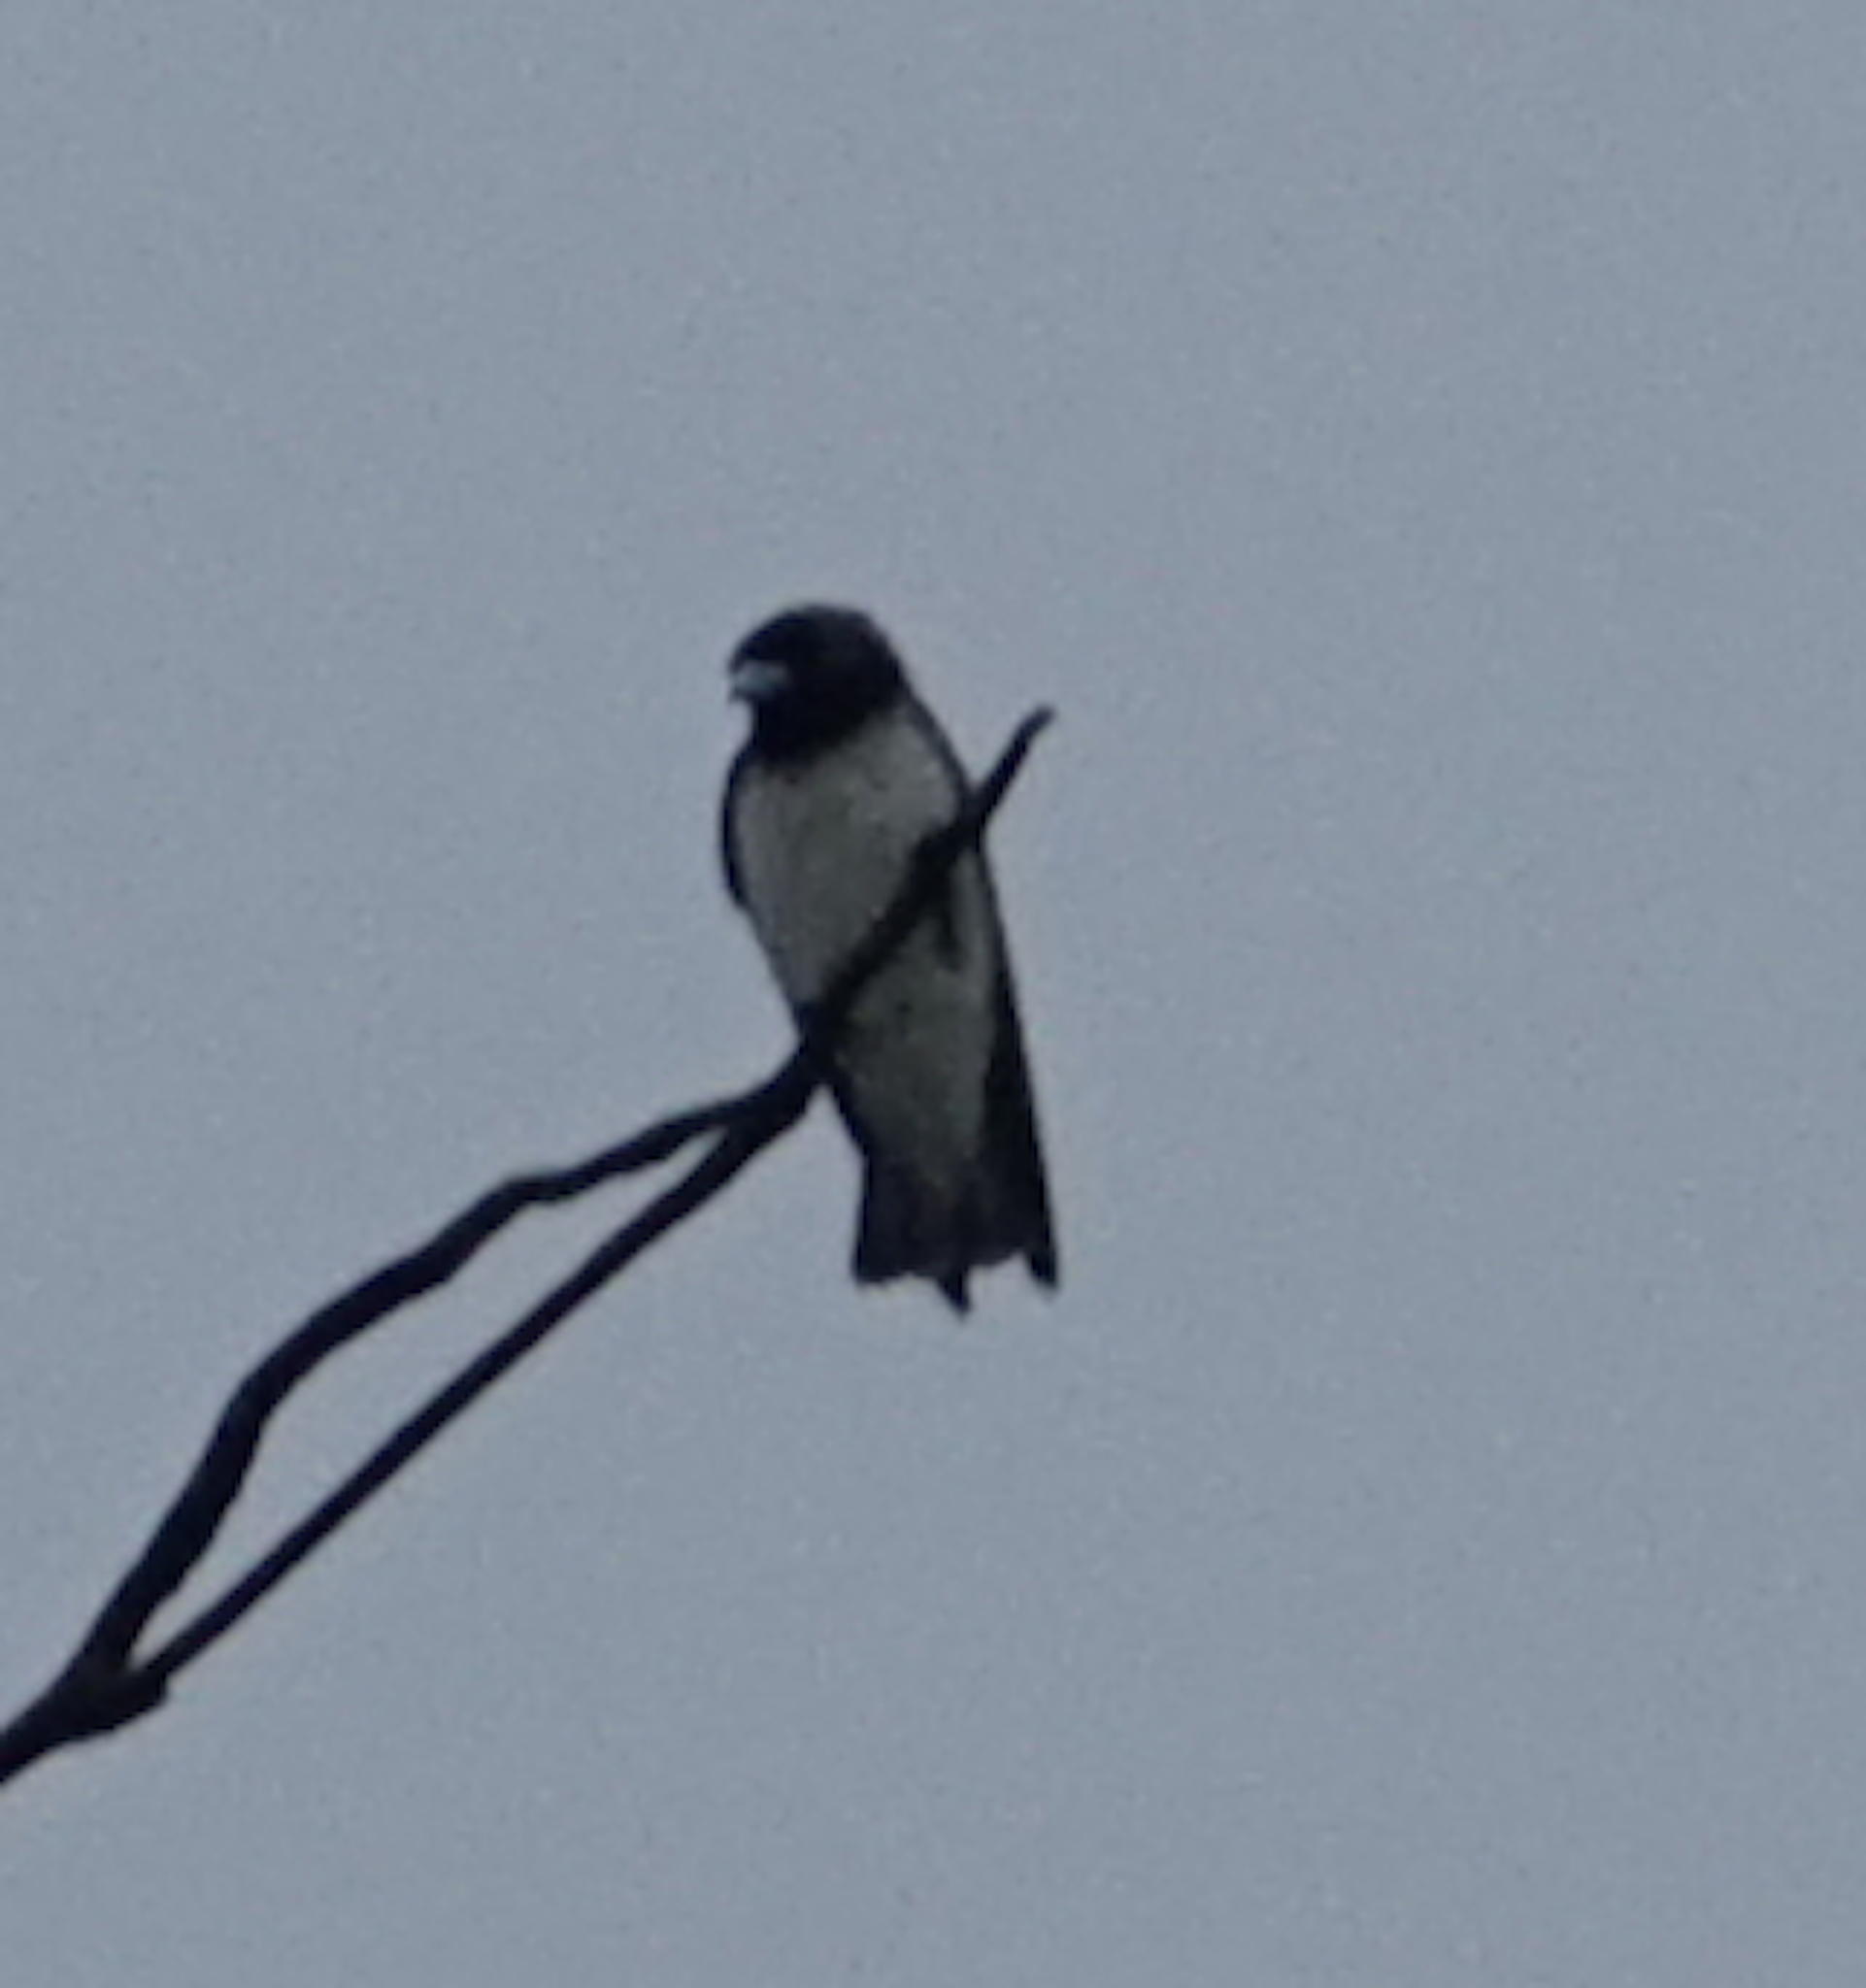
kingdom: Animalia
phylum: Chordata
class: Aves
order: Passeriformes
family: Artamidae
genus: Artamus
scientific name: Artamus leucoryn
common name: White-breasted woodswallow
